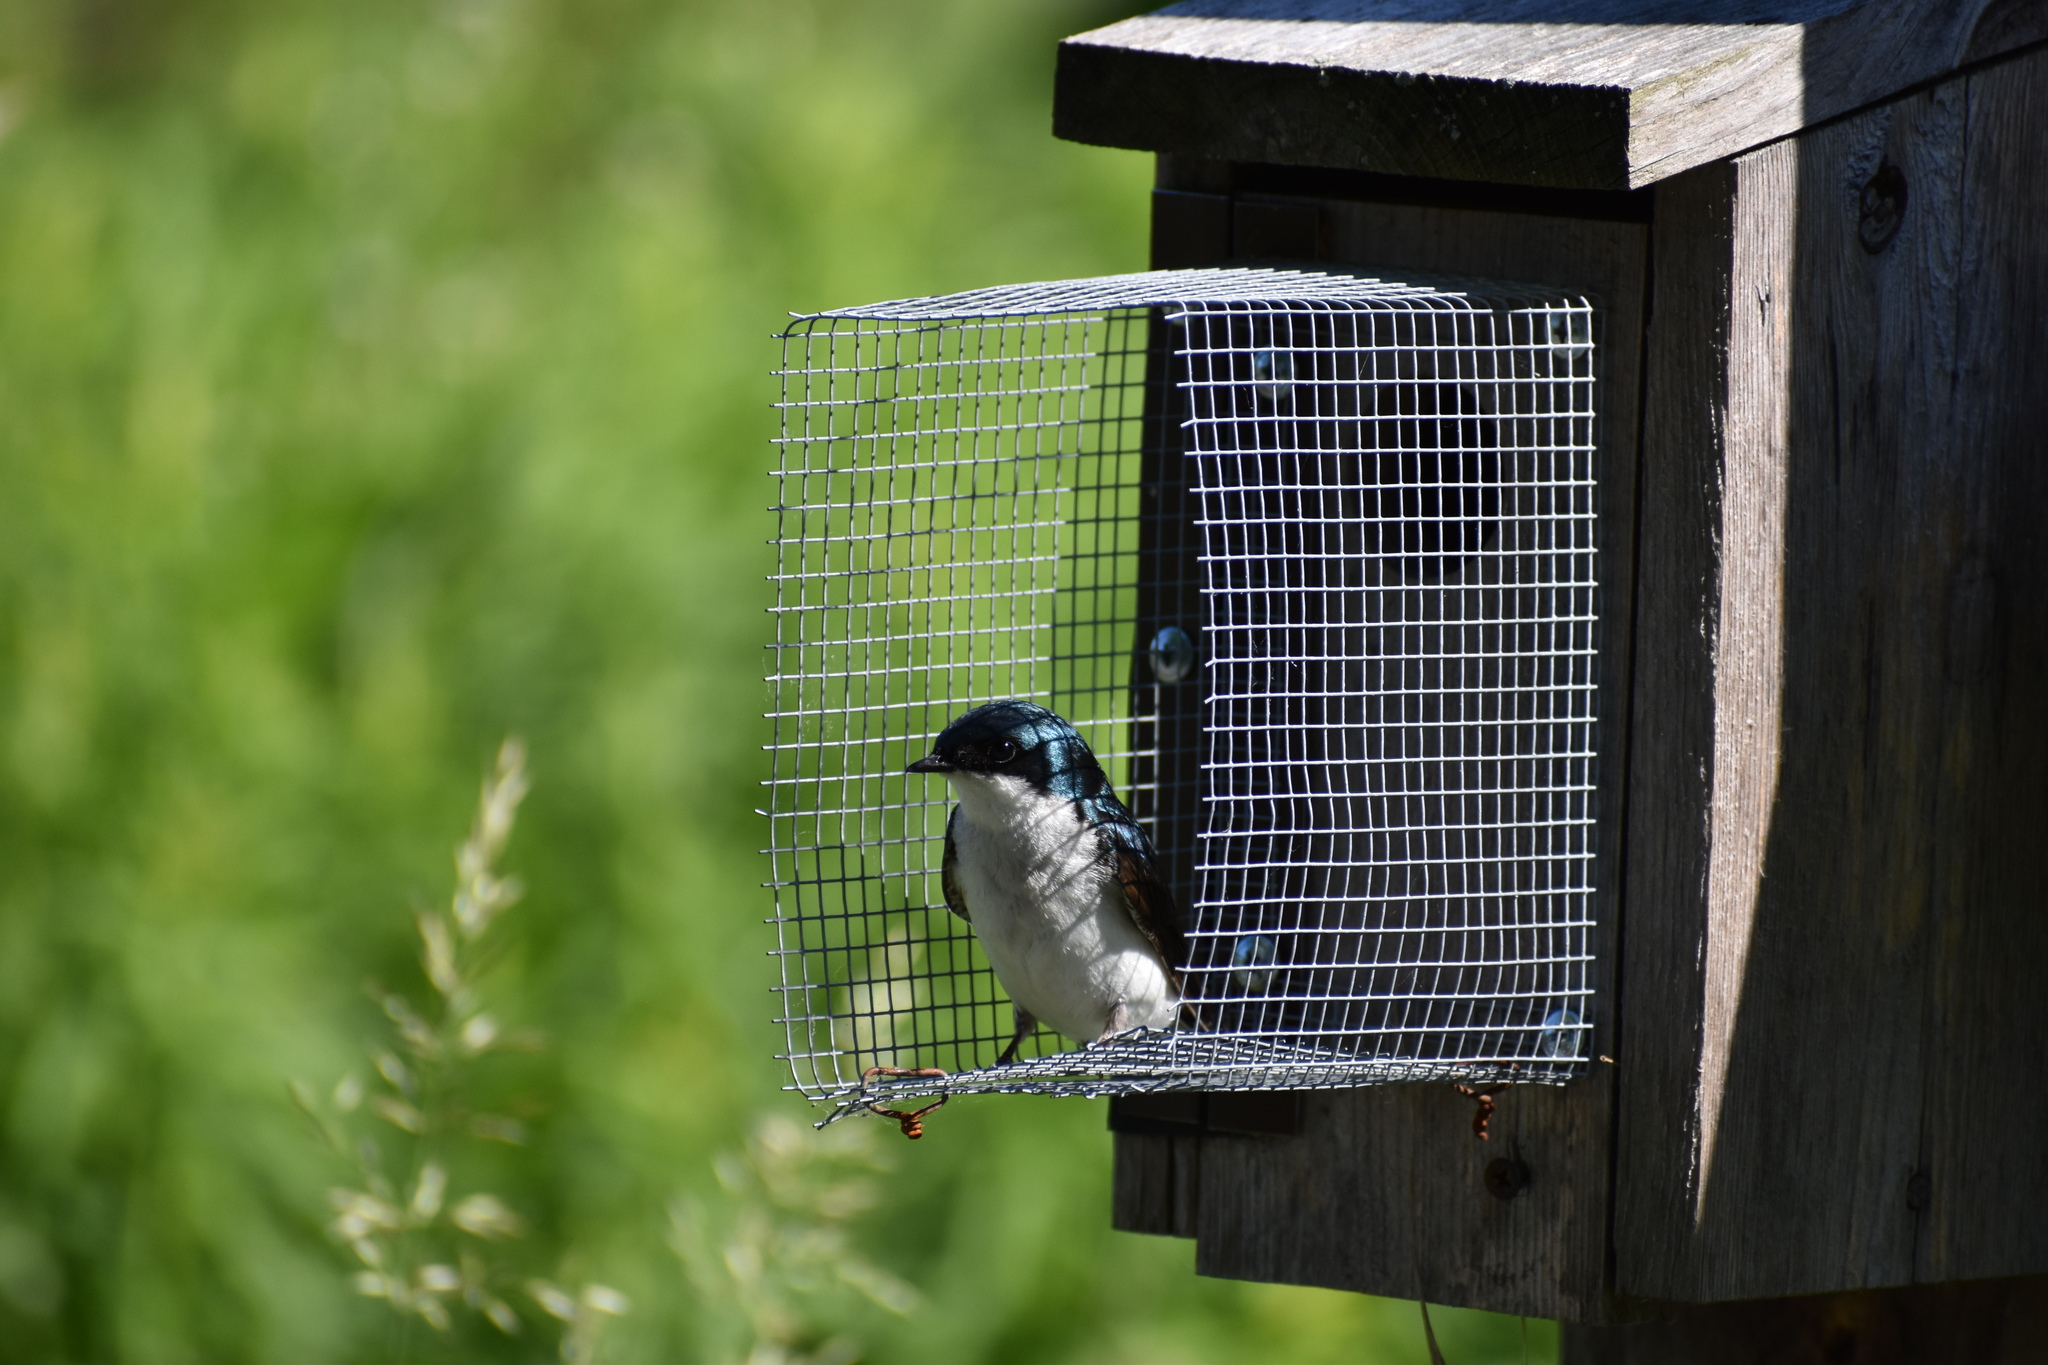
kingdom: Animalia
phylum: Chordata
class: Aves
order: Passeriformes
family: Hirundinidae
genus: Tachycineta
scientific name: Tachycineta bicolor
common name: Tree swallow
